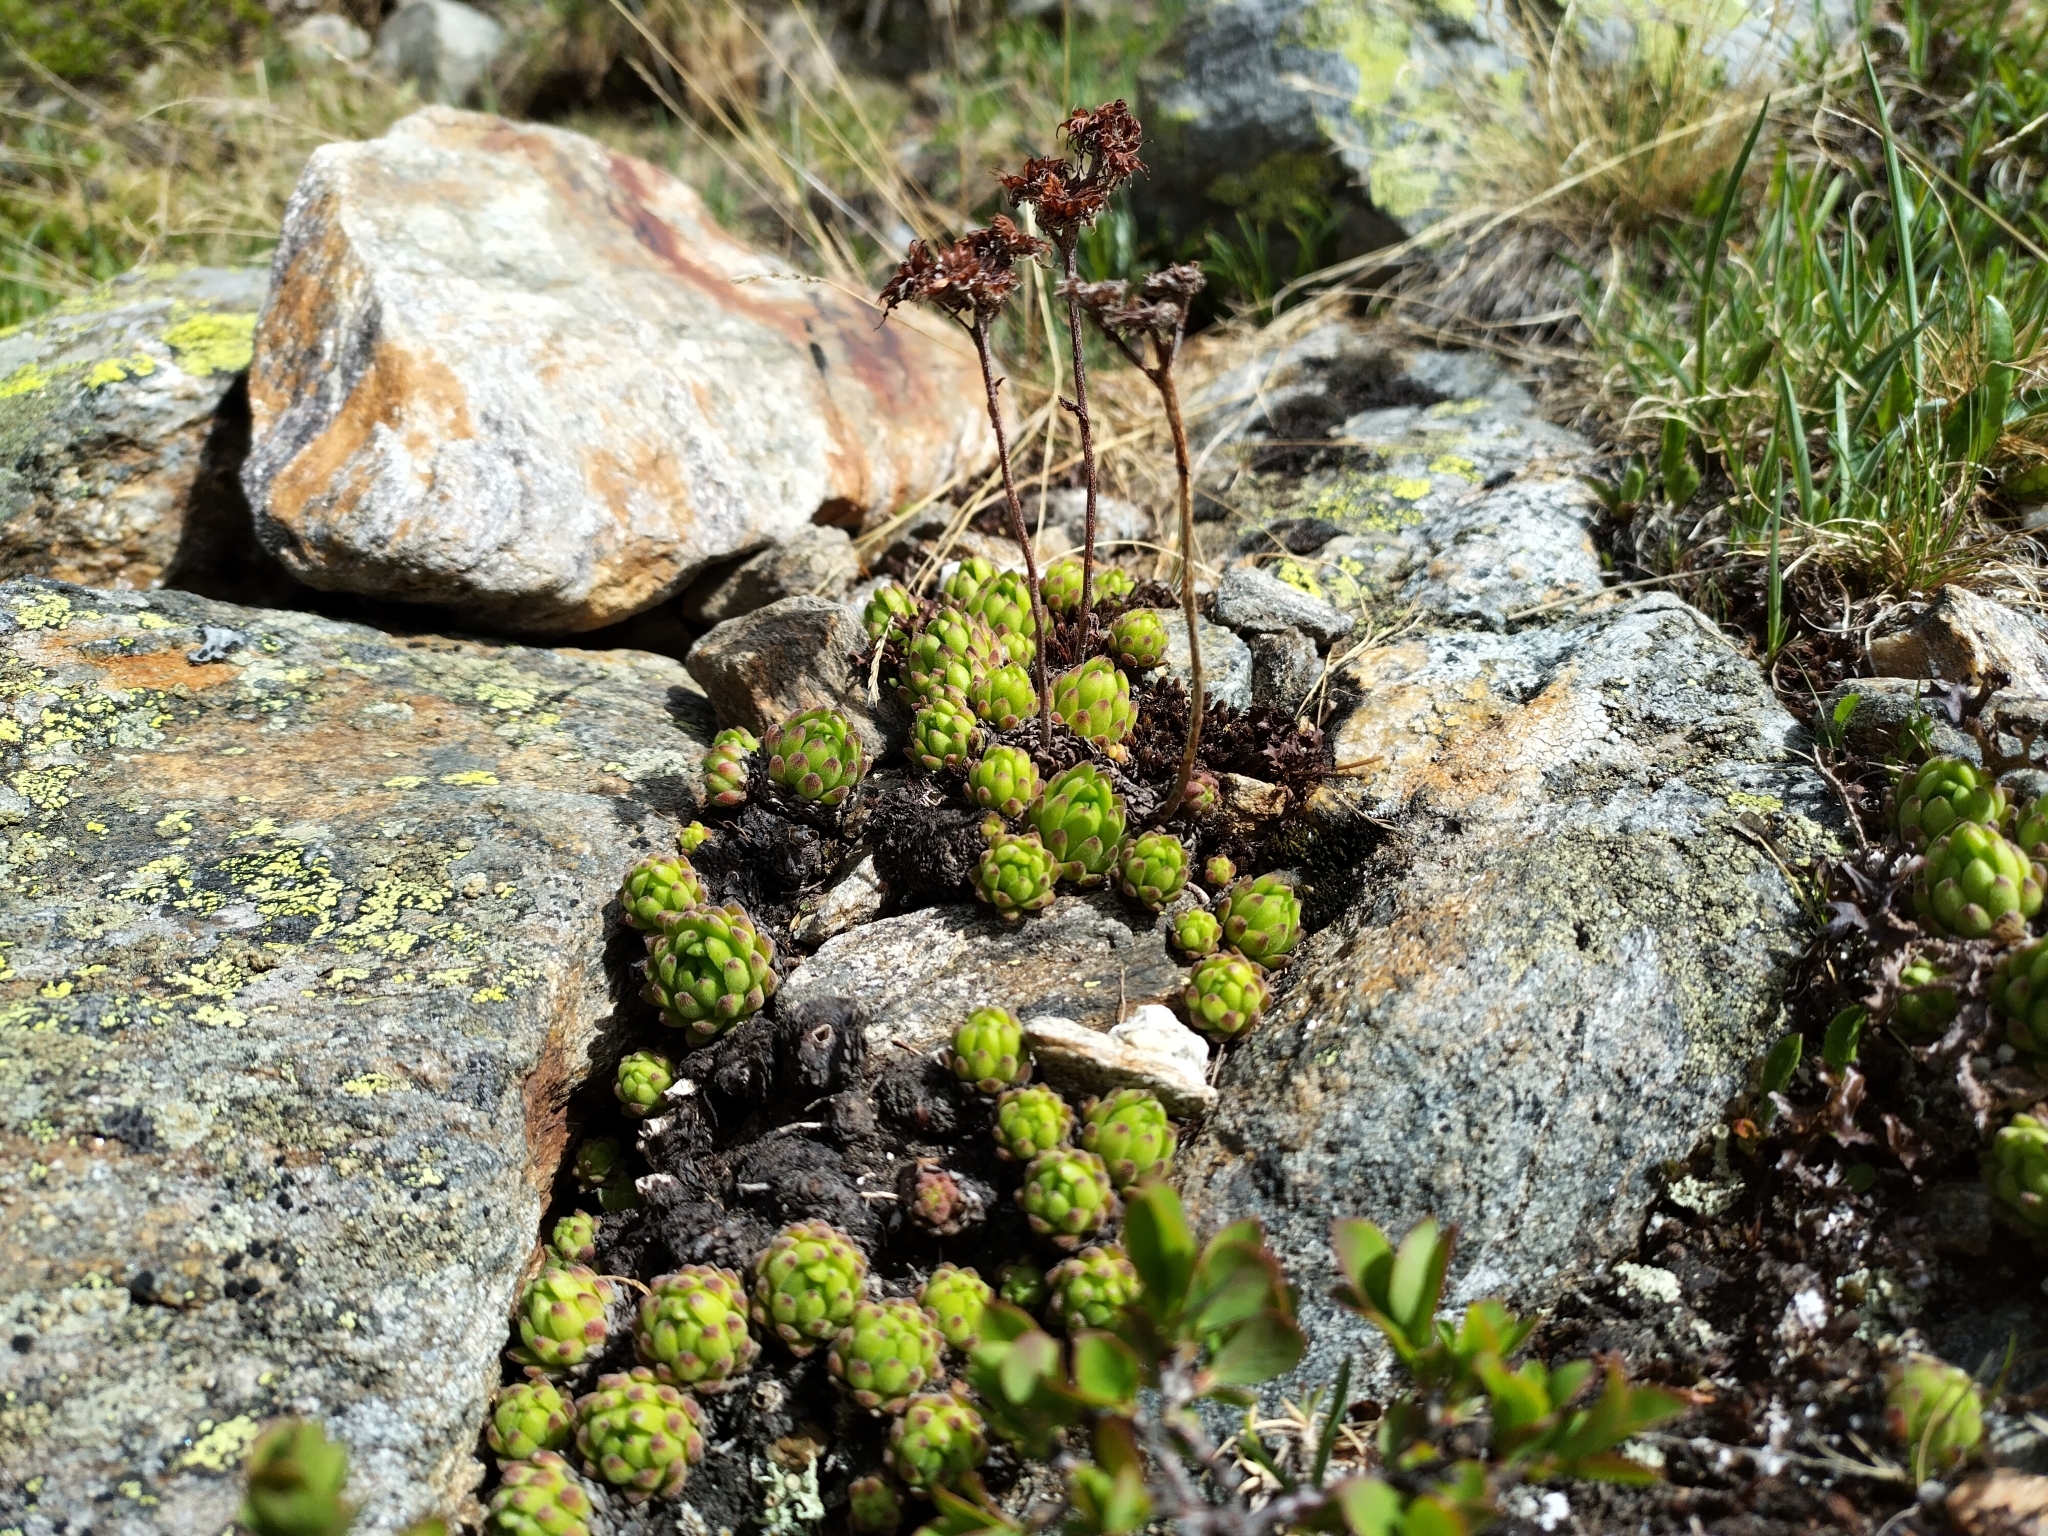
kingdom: Plantae
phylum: Tracheophyta
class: Magnoliopsida
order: Saxifragales
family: Crassulaceae
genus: Sempervivum
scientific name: Sempervivum montanum
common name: Mountain house-leek
